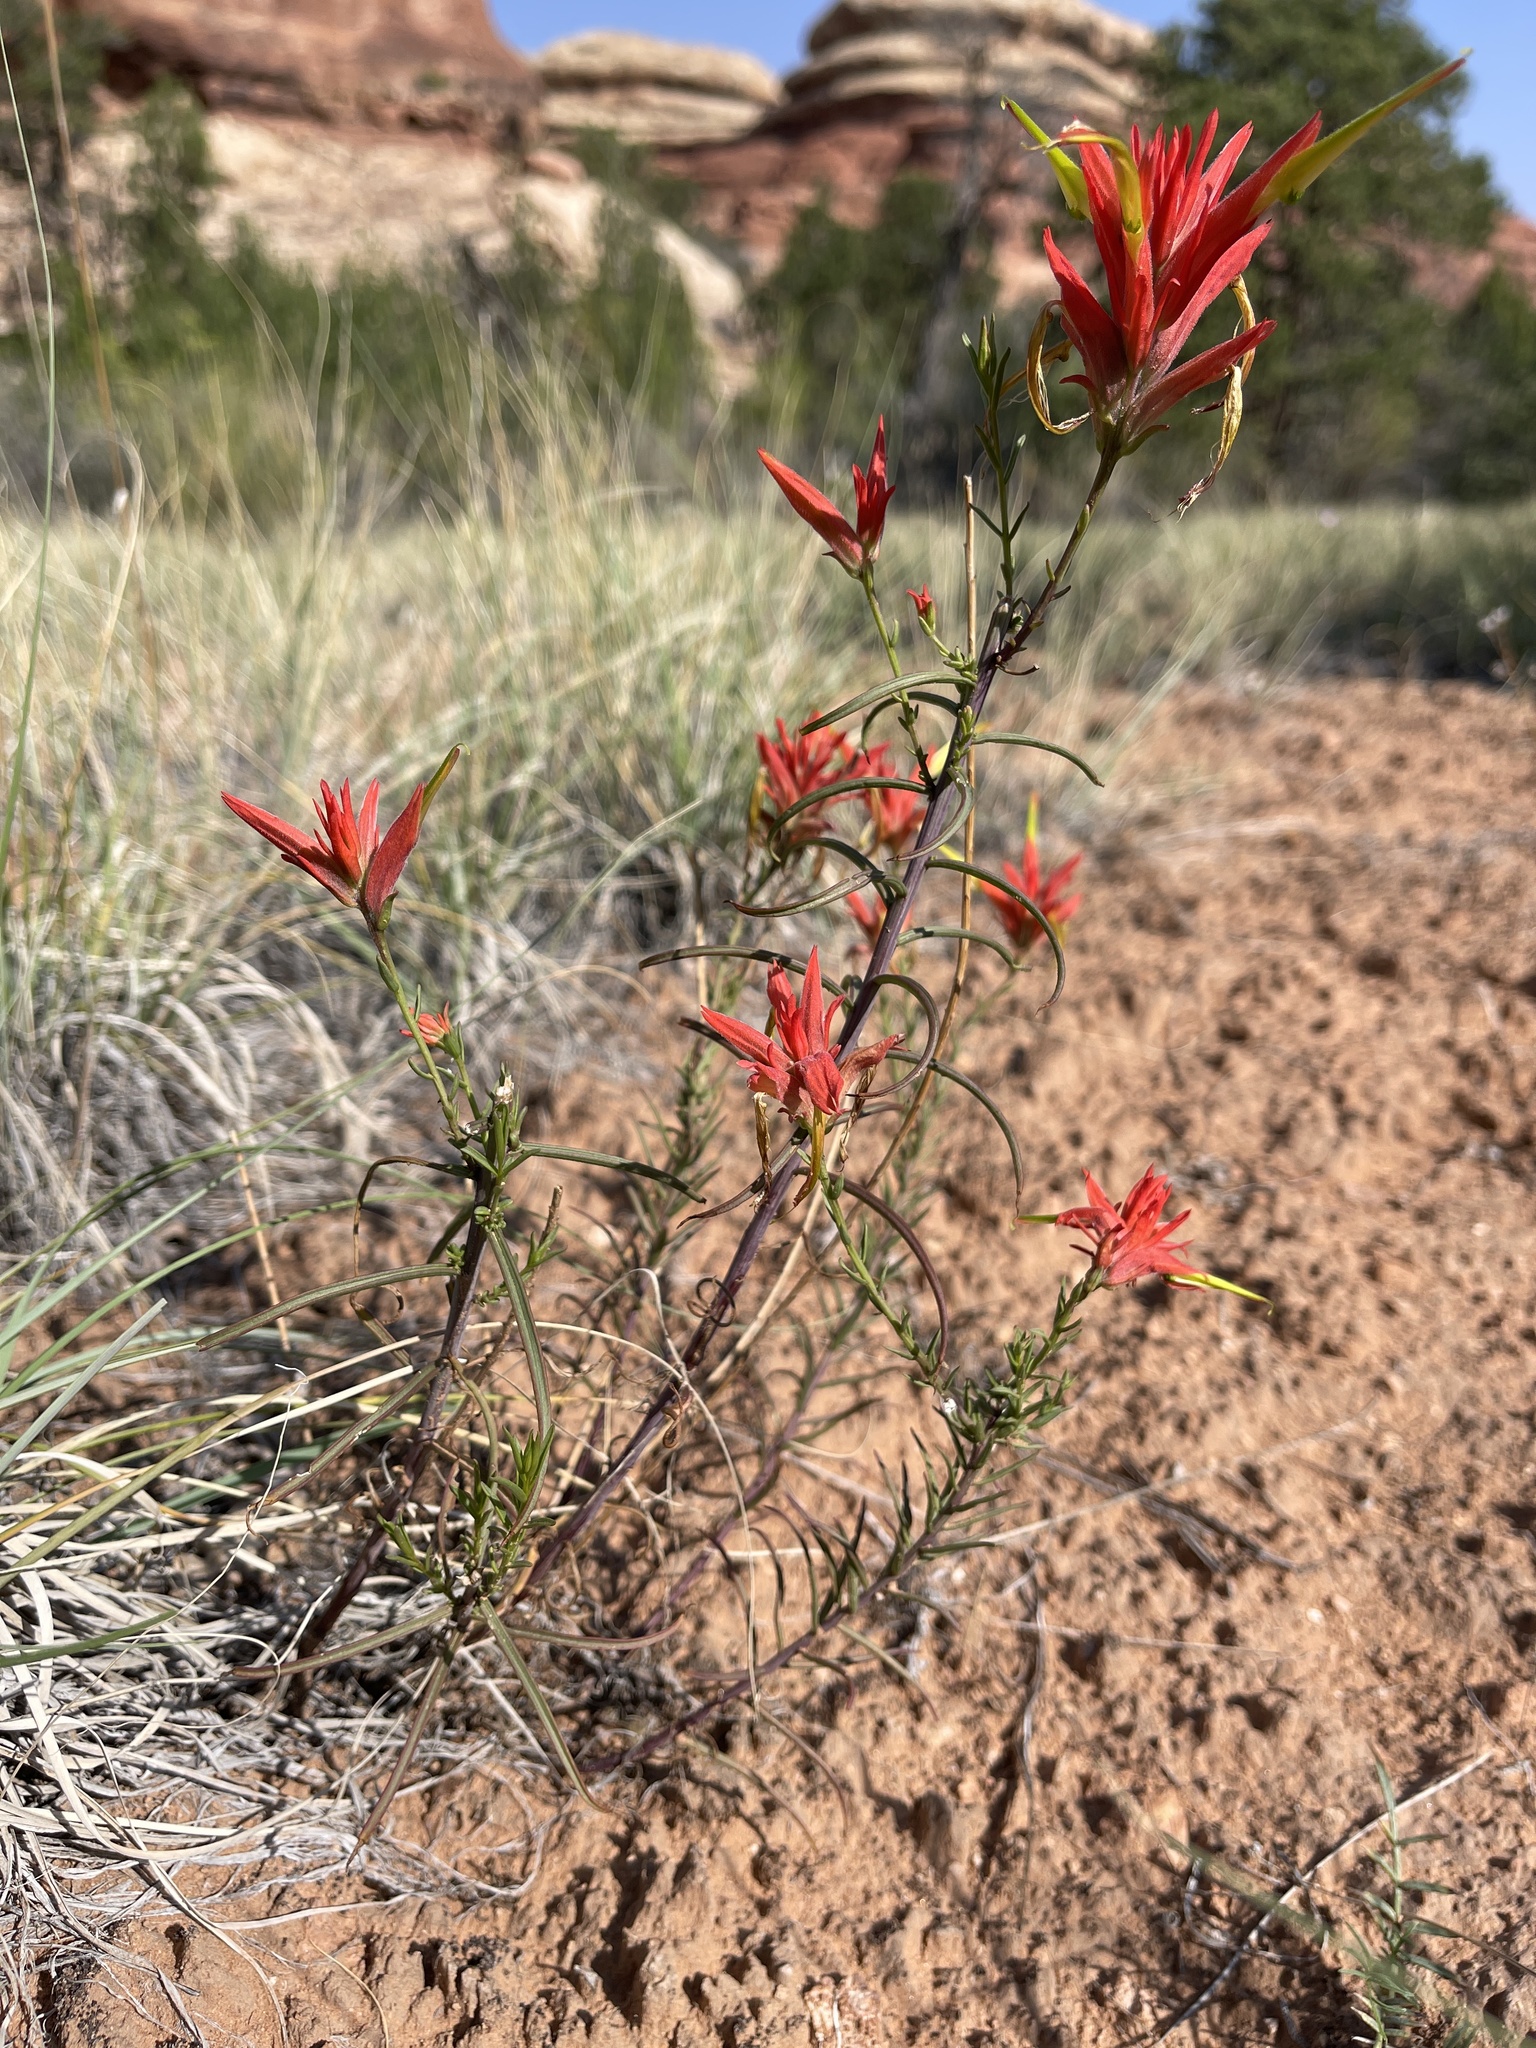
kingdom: Plantae
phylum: Tracheophyta
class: Magnoliopsida
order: Lamiales
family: Orobanchaceae
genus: Castilleja
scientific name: Castilleja linariifolia
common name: Wyoming paintbrush
